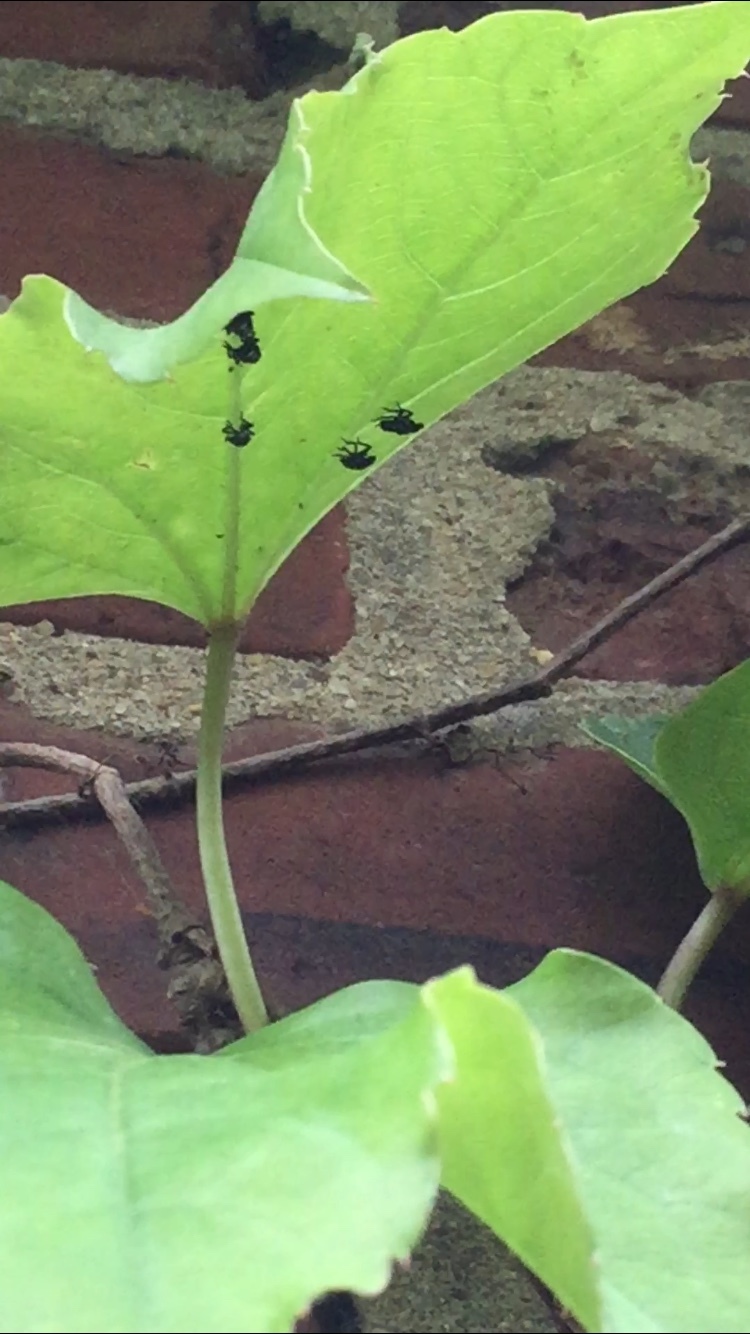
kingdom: Animalia
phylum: Arthropoda
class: Insecta
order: Hemiptera
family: Fulgoridae
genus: Lycorma
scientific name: Lycorma delicatula
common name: Spotted lanternfly
